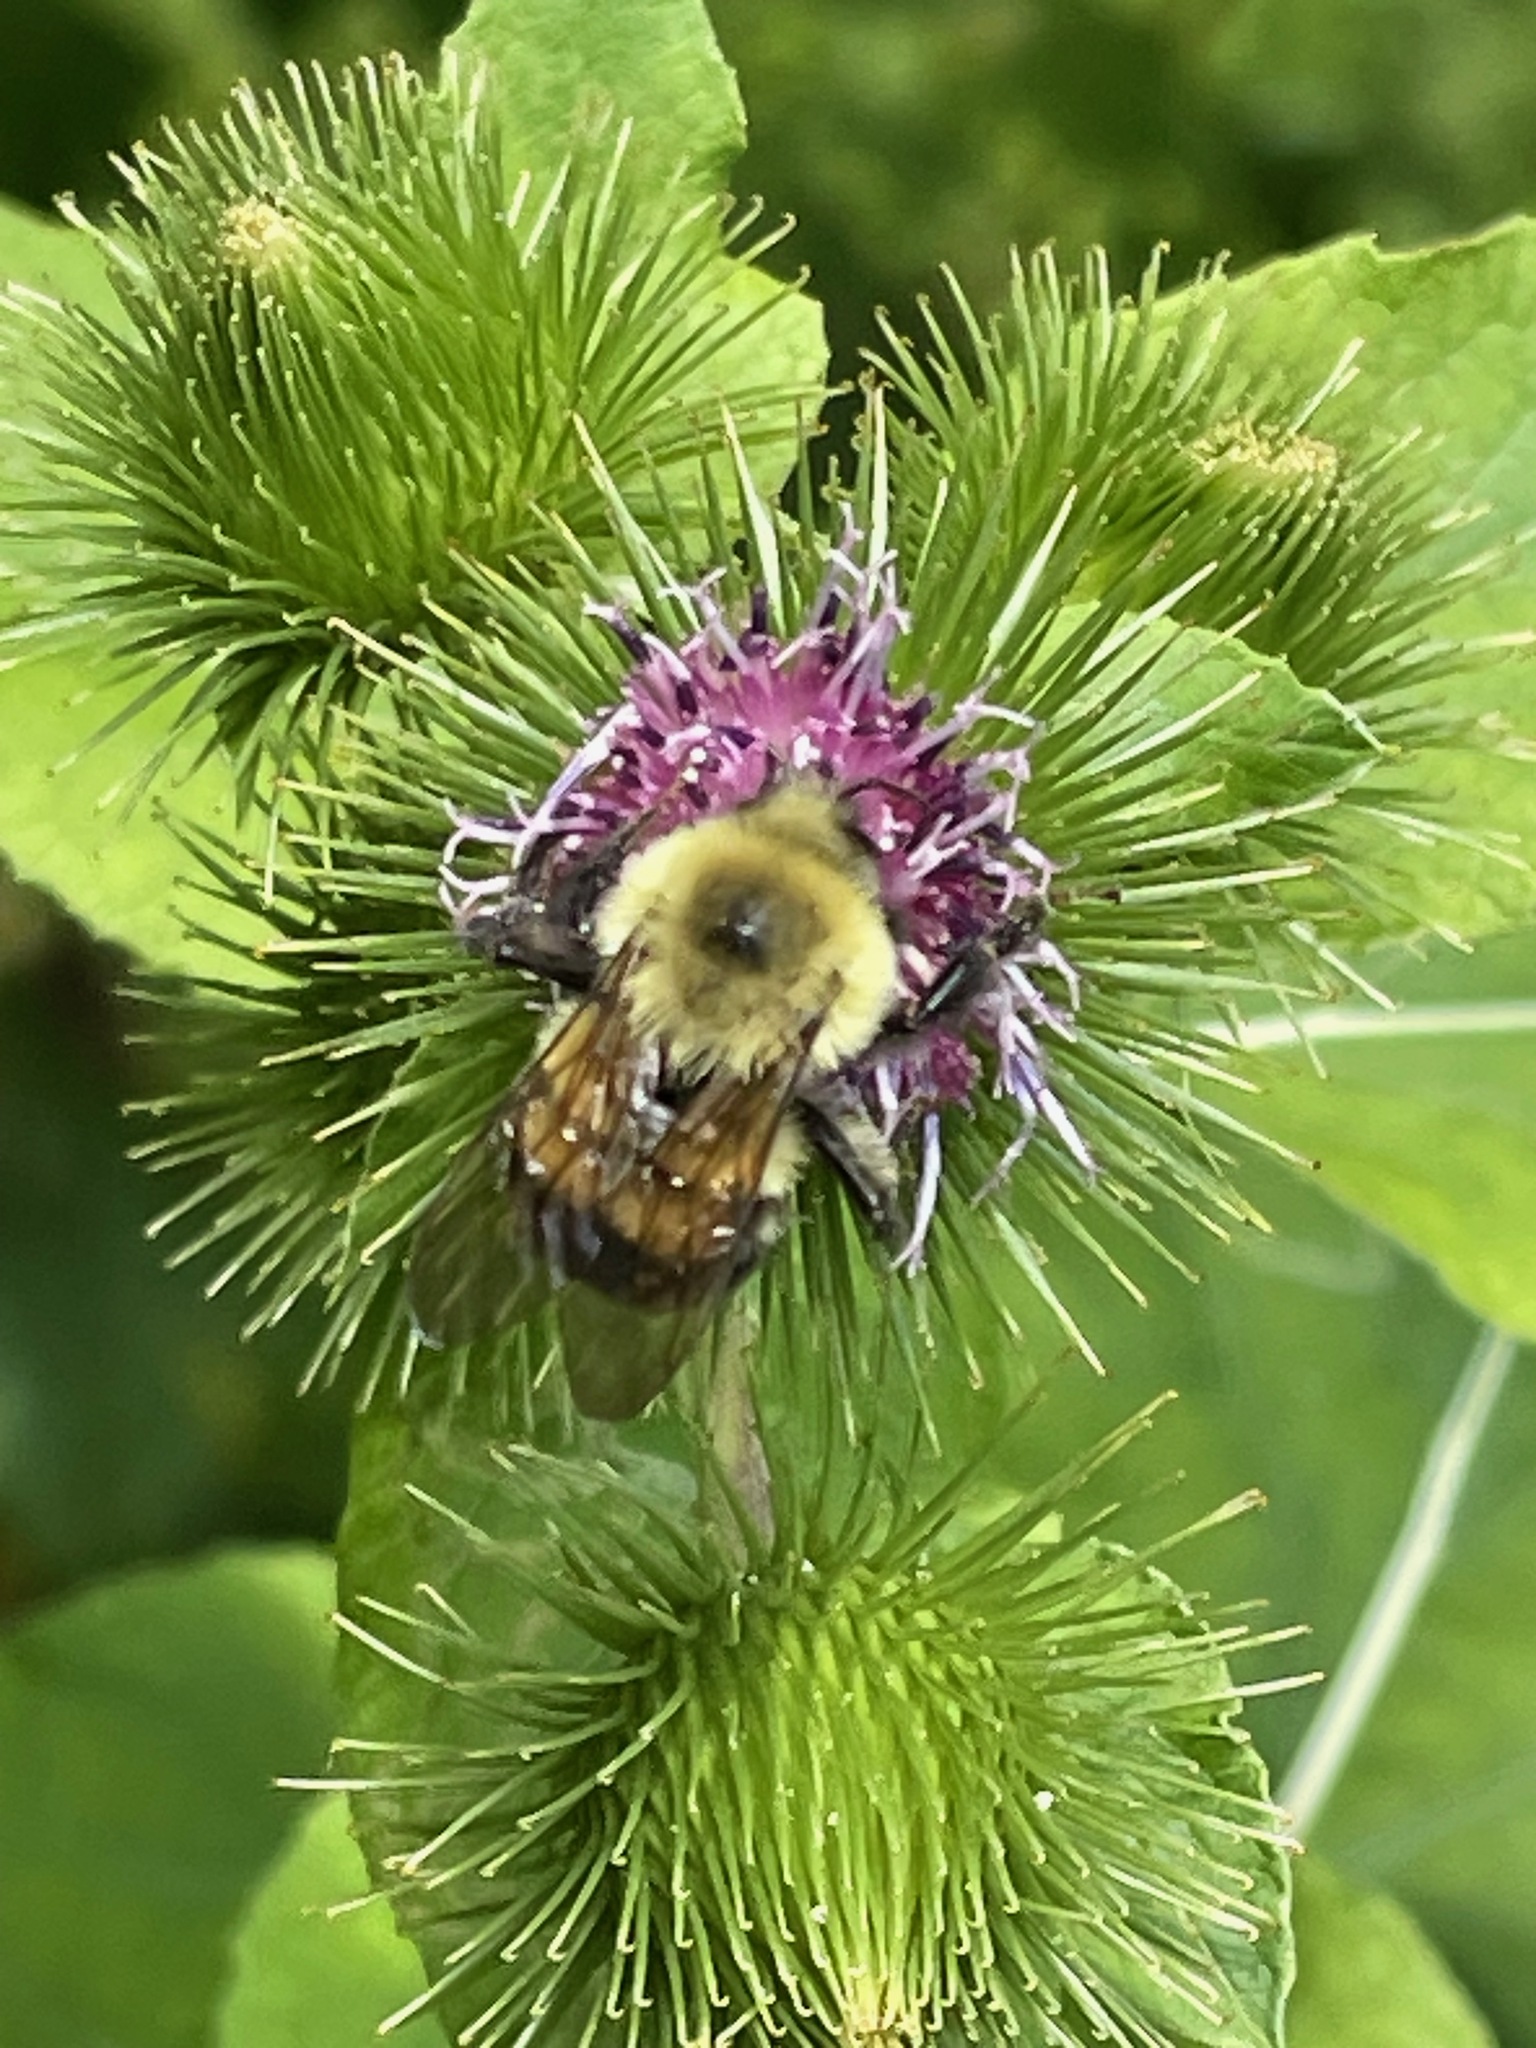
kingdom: Animalia
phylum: Arthropoda
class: Insecta
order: Hymenoptera
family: Apidae
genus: Bombus
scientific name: Bombus bimaculatus
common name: Two-spotted bumble bee
